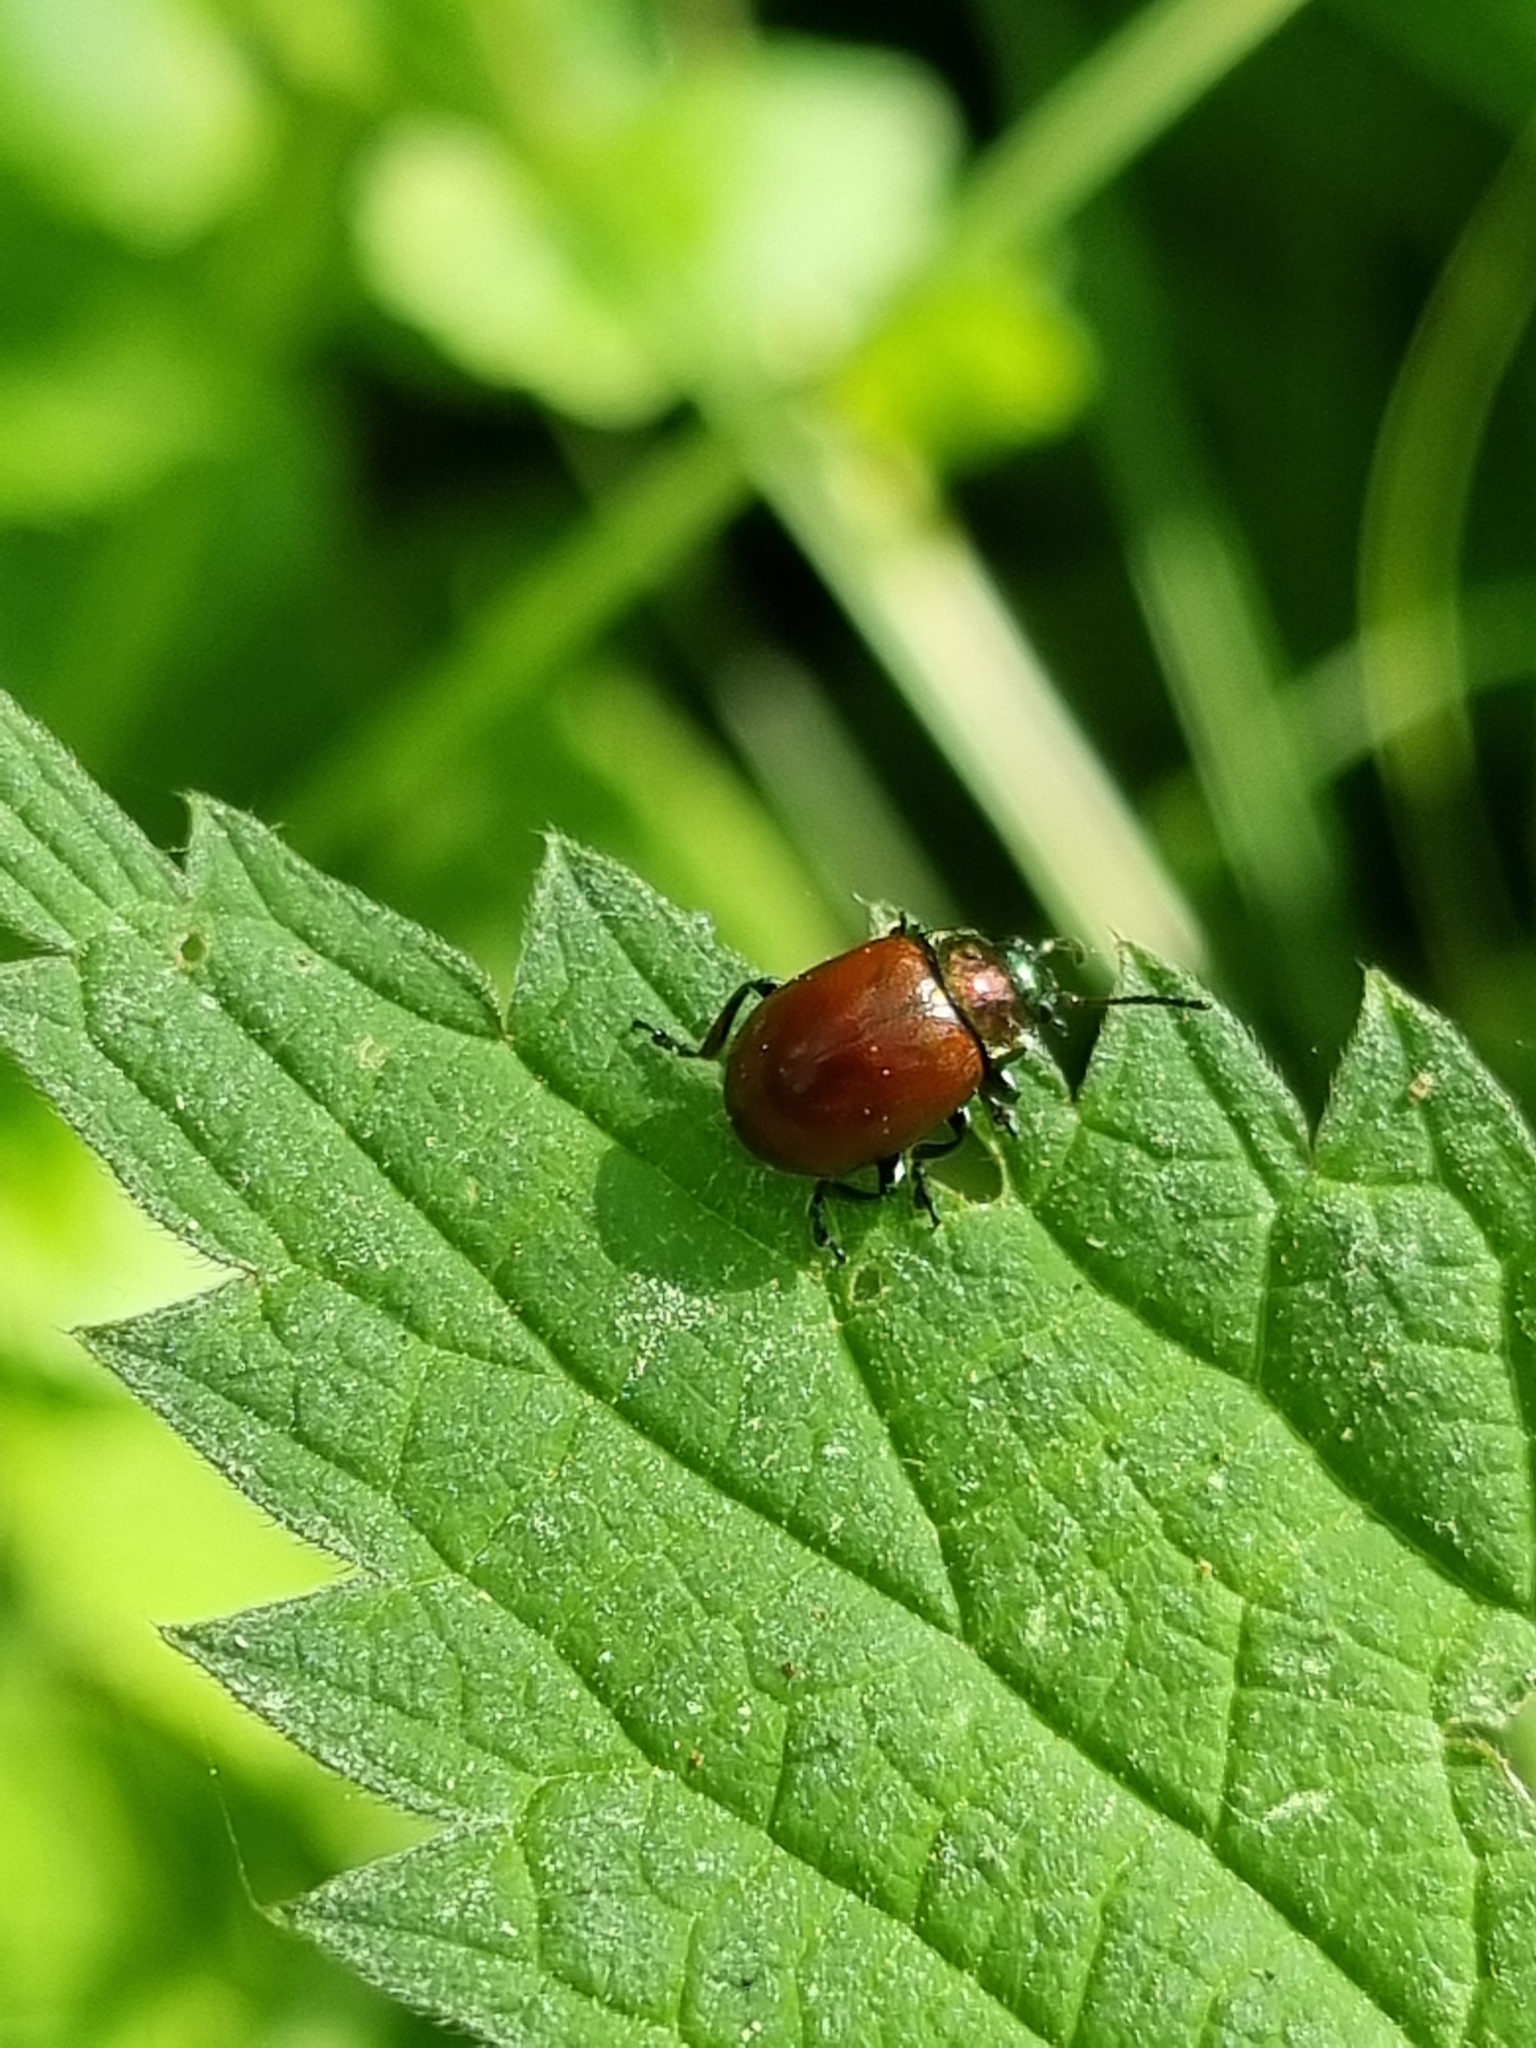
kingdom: Animalia
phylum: Arthropoda
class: Insecta
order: Coleoptera
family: Chrysomelidae
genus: Chrysomela
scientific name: Chrysomela polita
